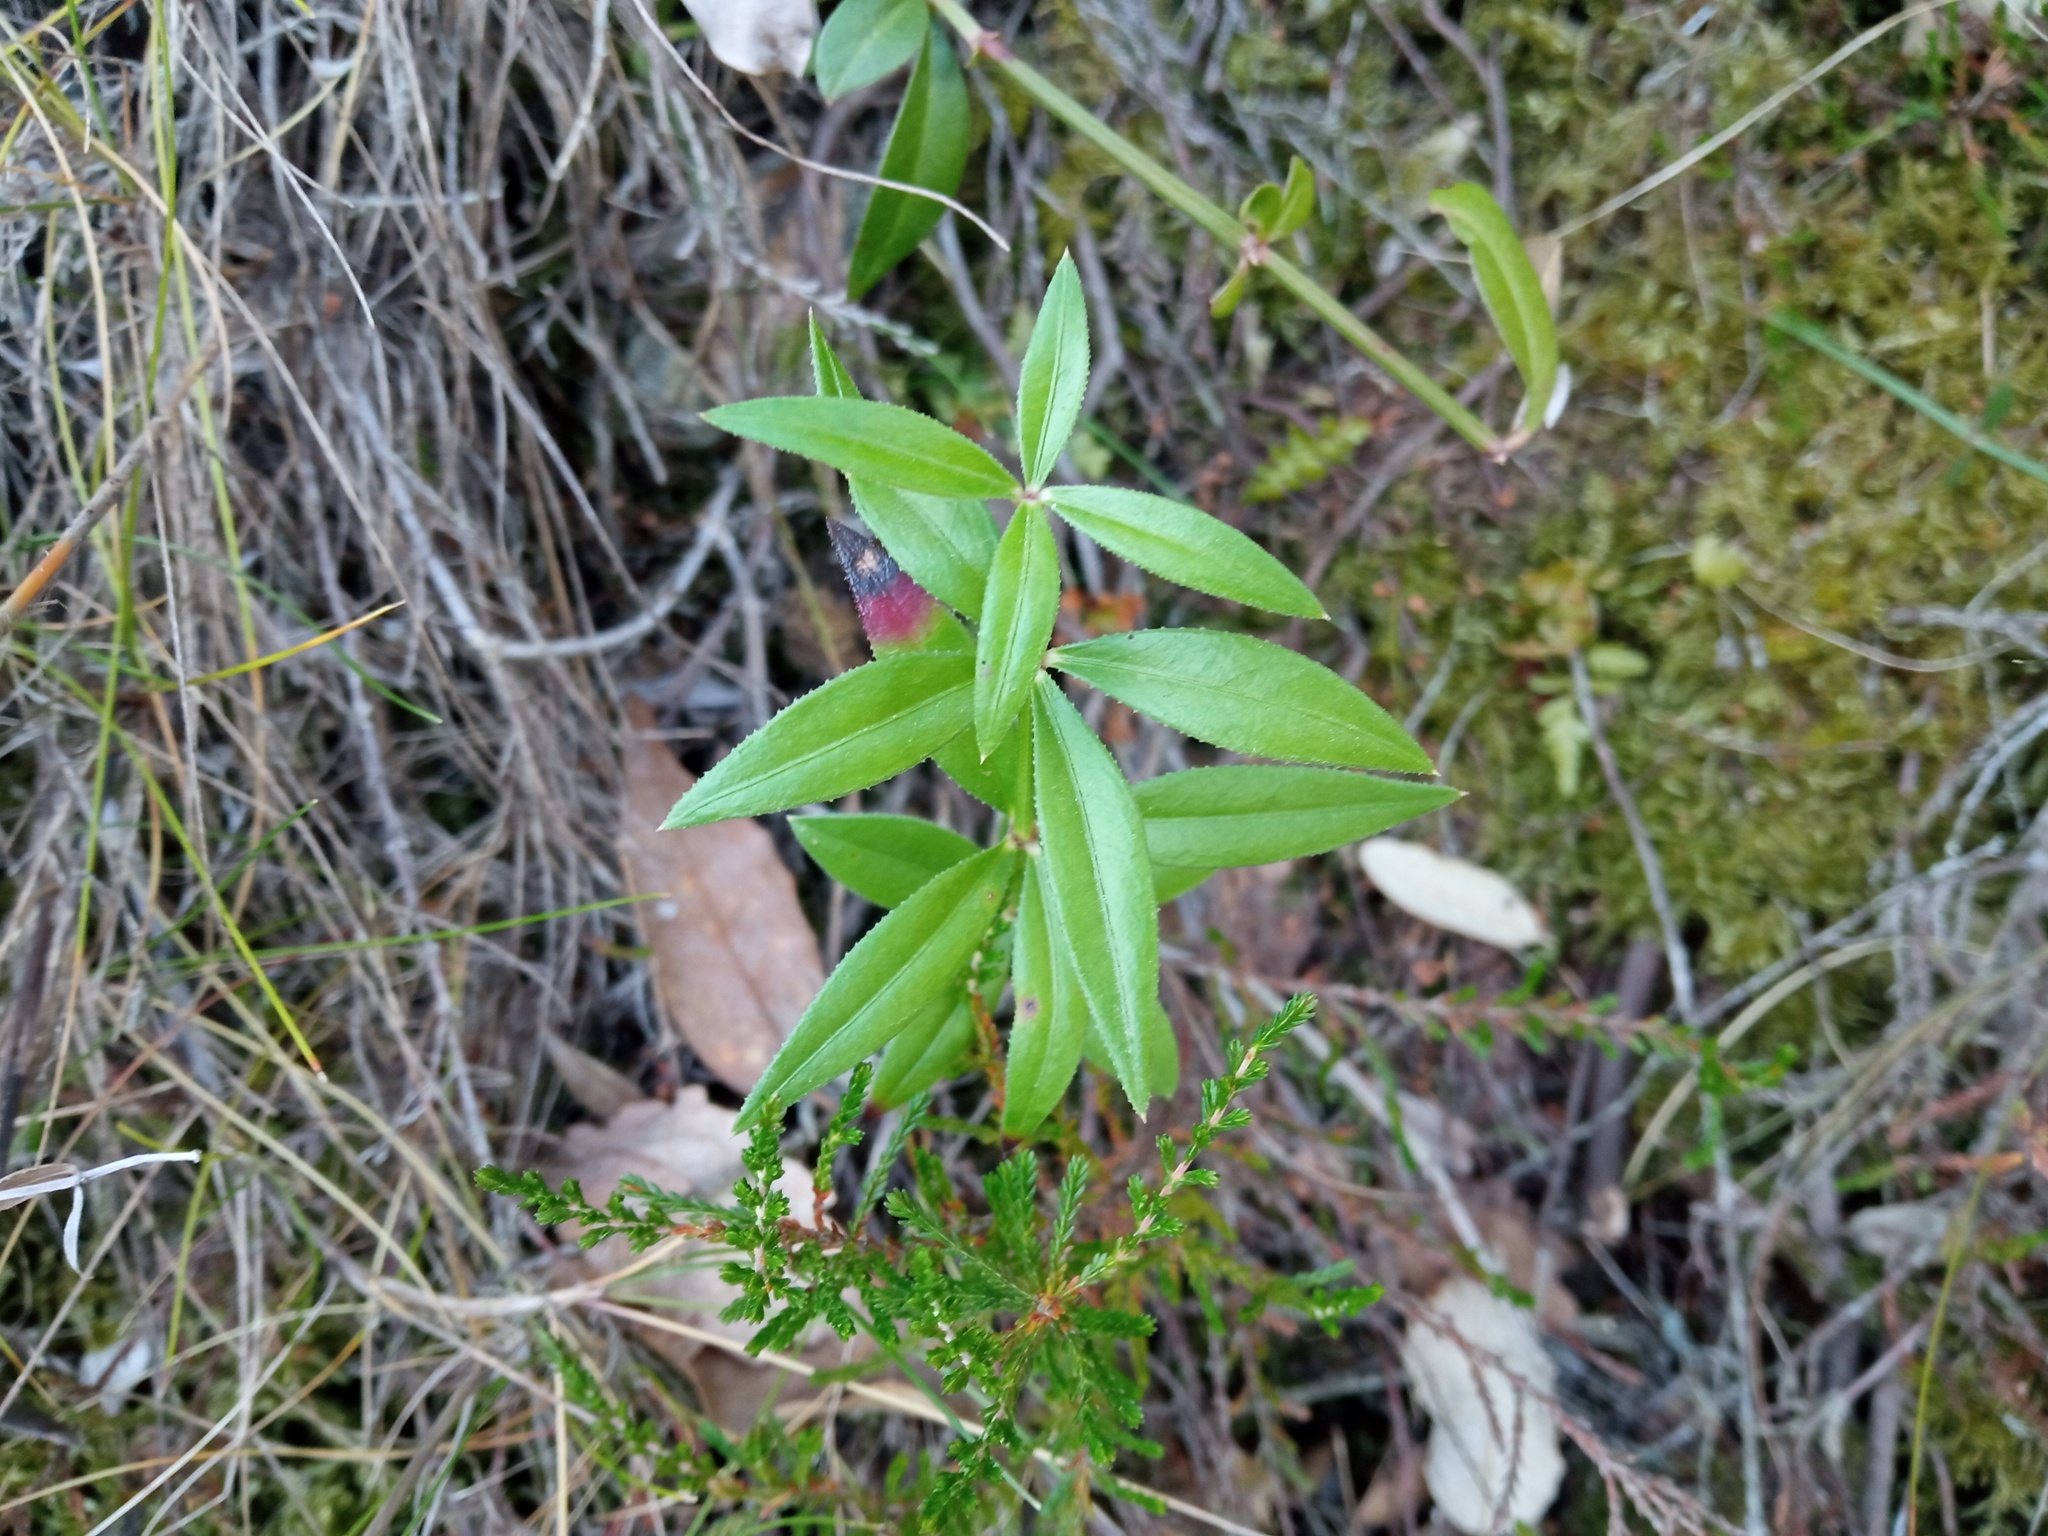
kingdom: Plantae
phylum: Tracheophyta
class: Magnoliopsida
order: Gentianales
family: Rubiaceae
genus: Rubia
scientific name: Rubia peregrina
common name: Wild madder
